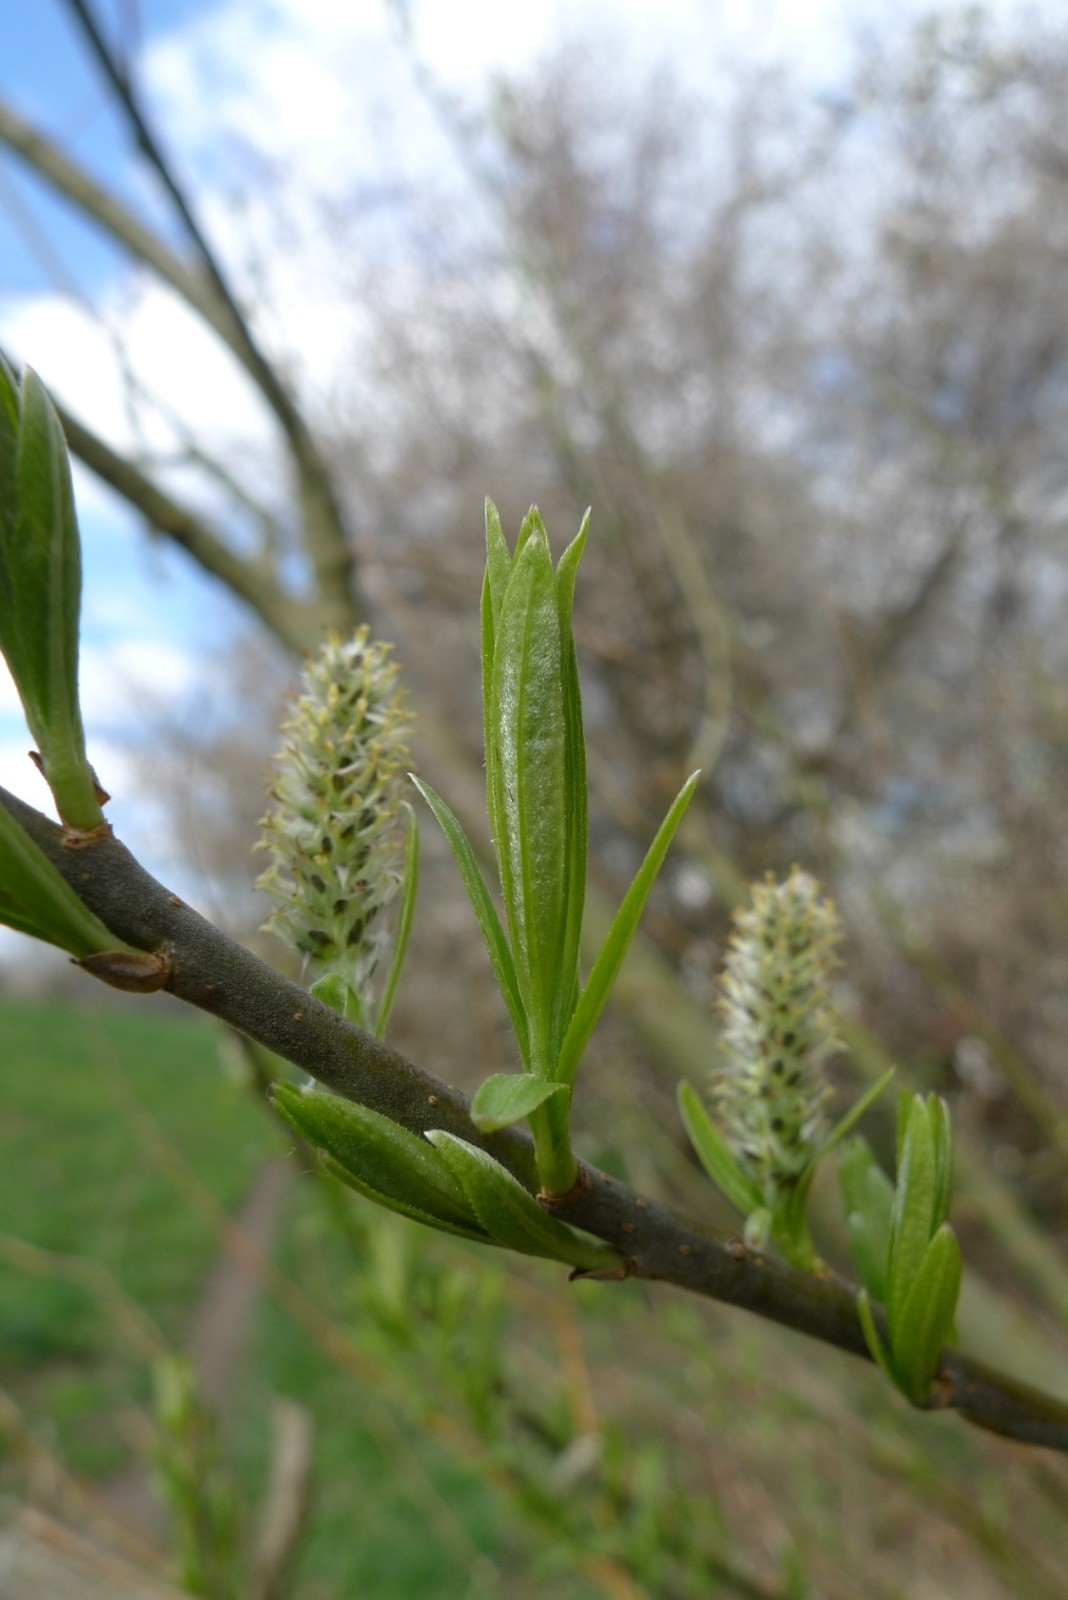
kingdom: Plantae
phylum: Tracheophyta
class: Magnoliopsida
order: Malpighiales
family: Salicaceae
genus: Salix
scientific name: Salix viminalis
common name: Osier
